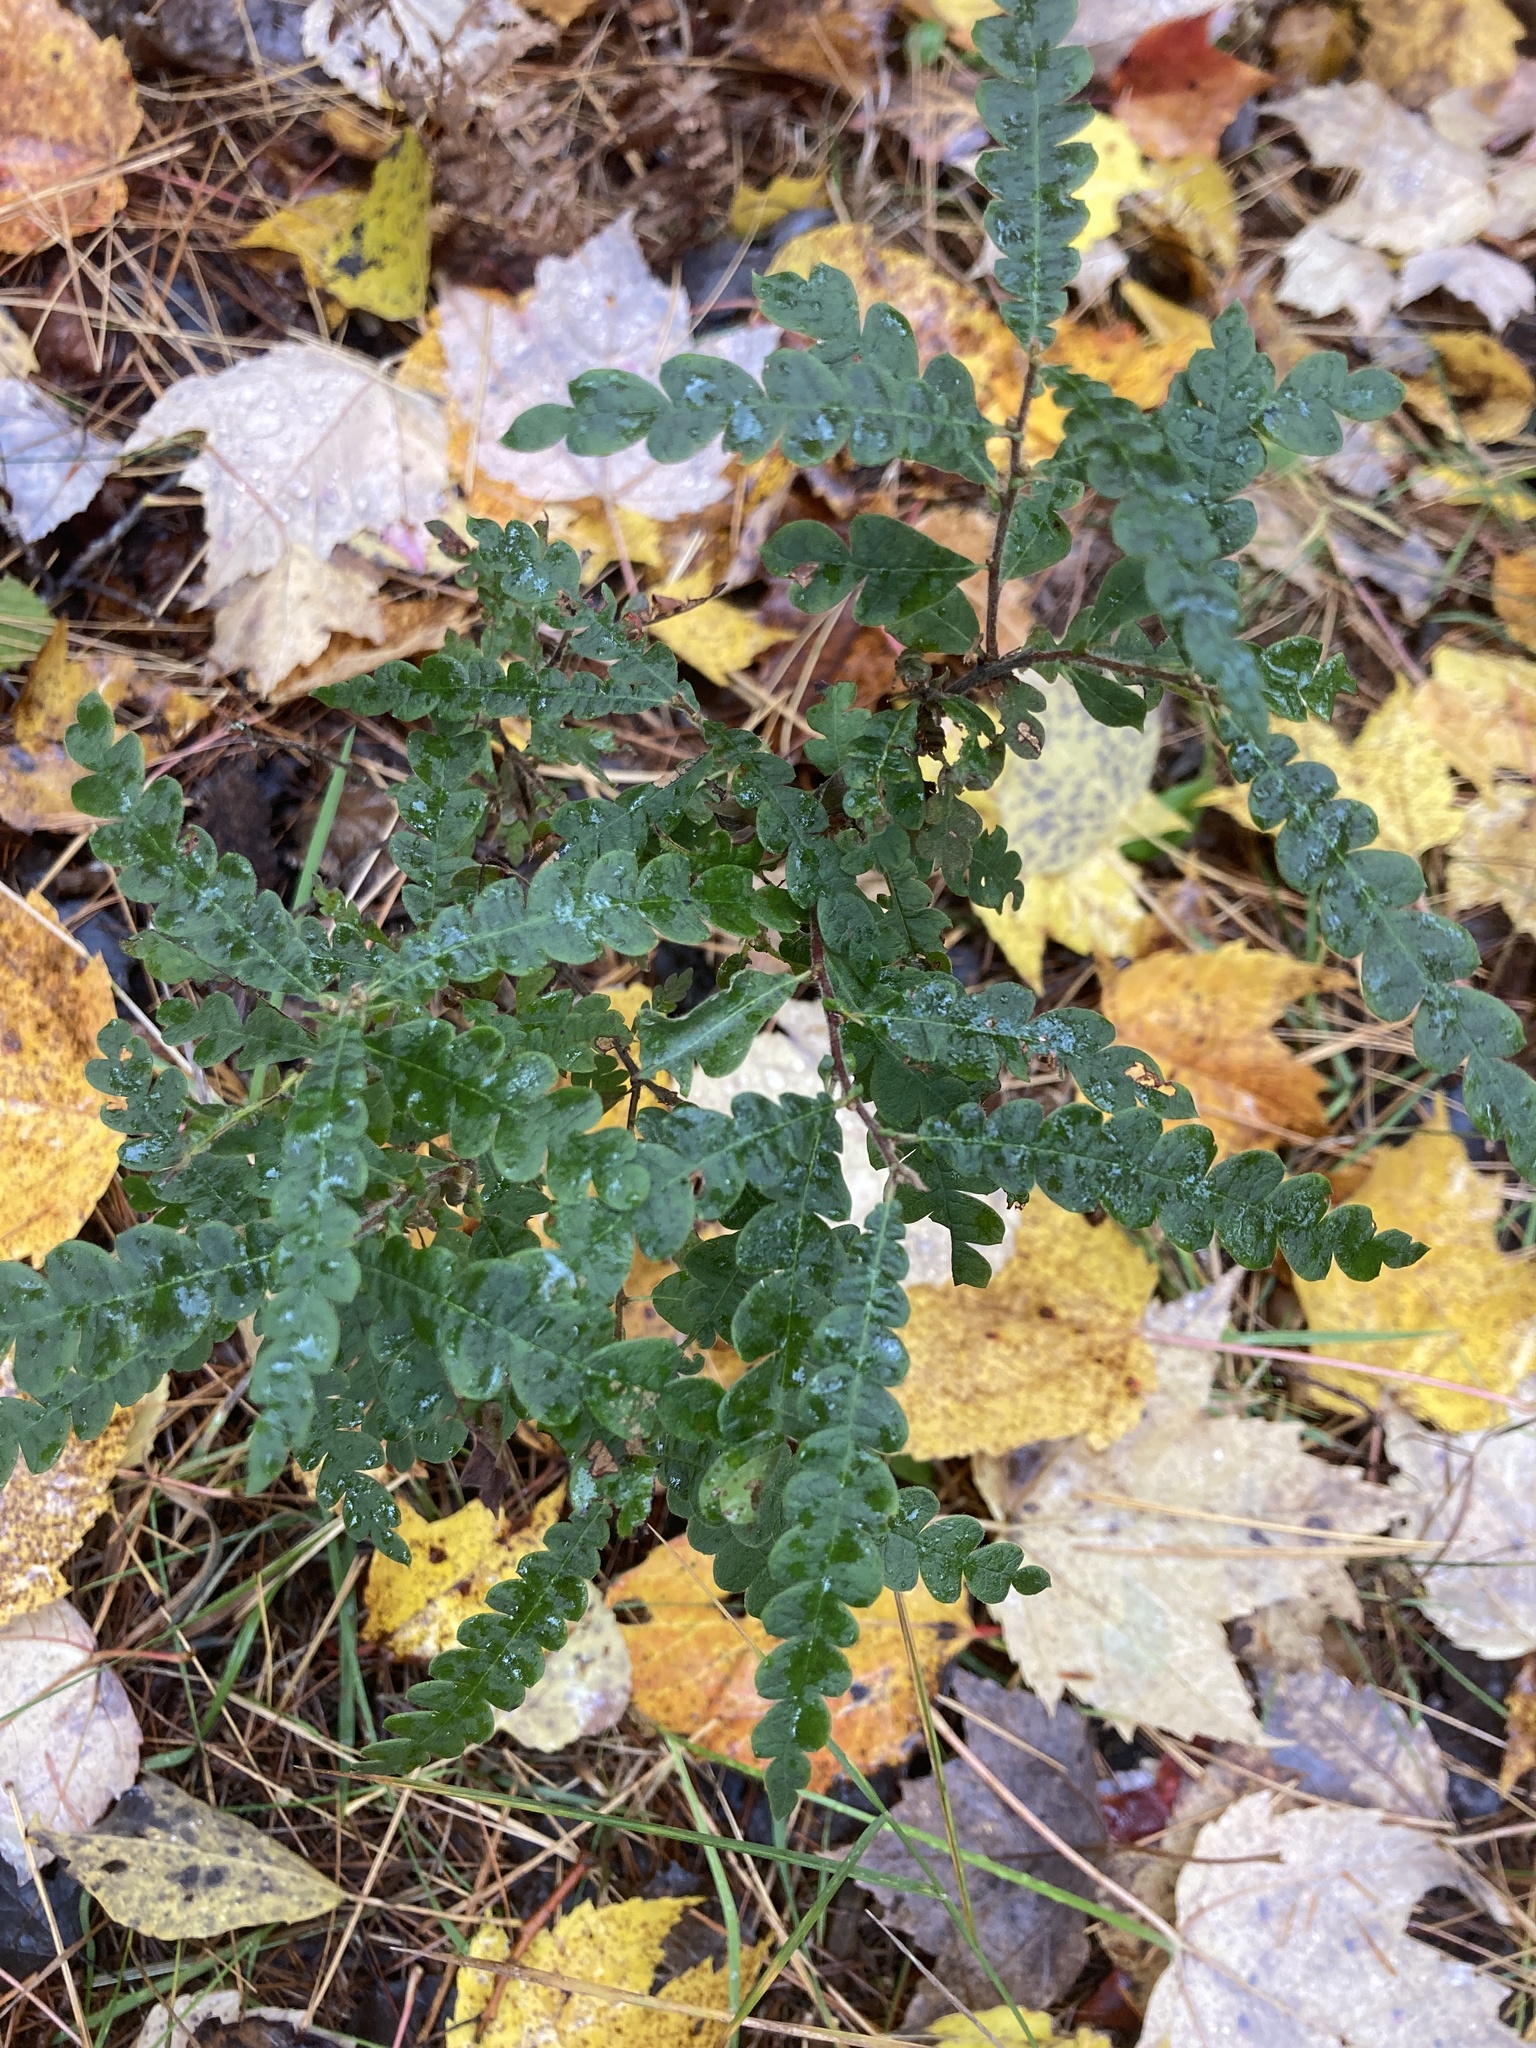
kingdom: Plantae
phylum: Tracheophyta
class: Magnoliopsida
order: Fagales
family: Myricaceae
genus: Comptonia
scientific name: Comptonia peregrina
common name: Sweet-fern
